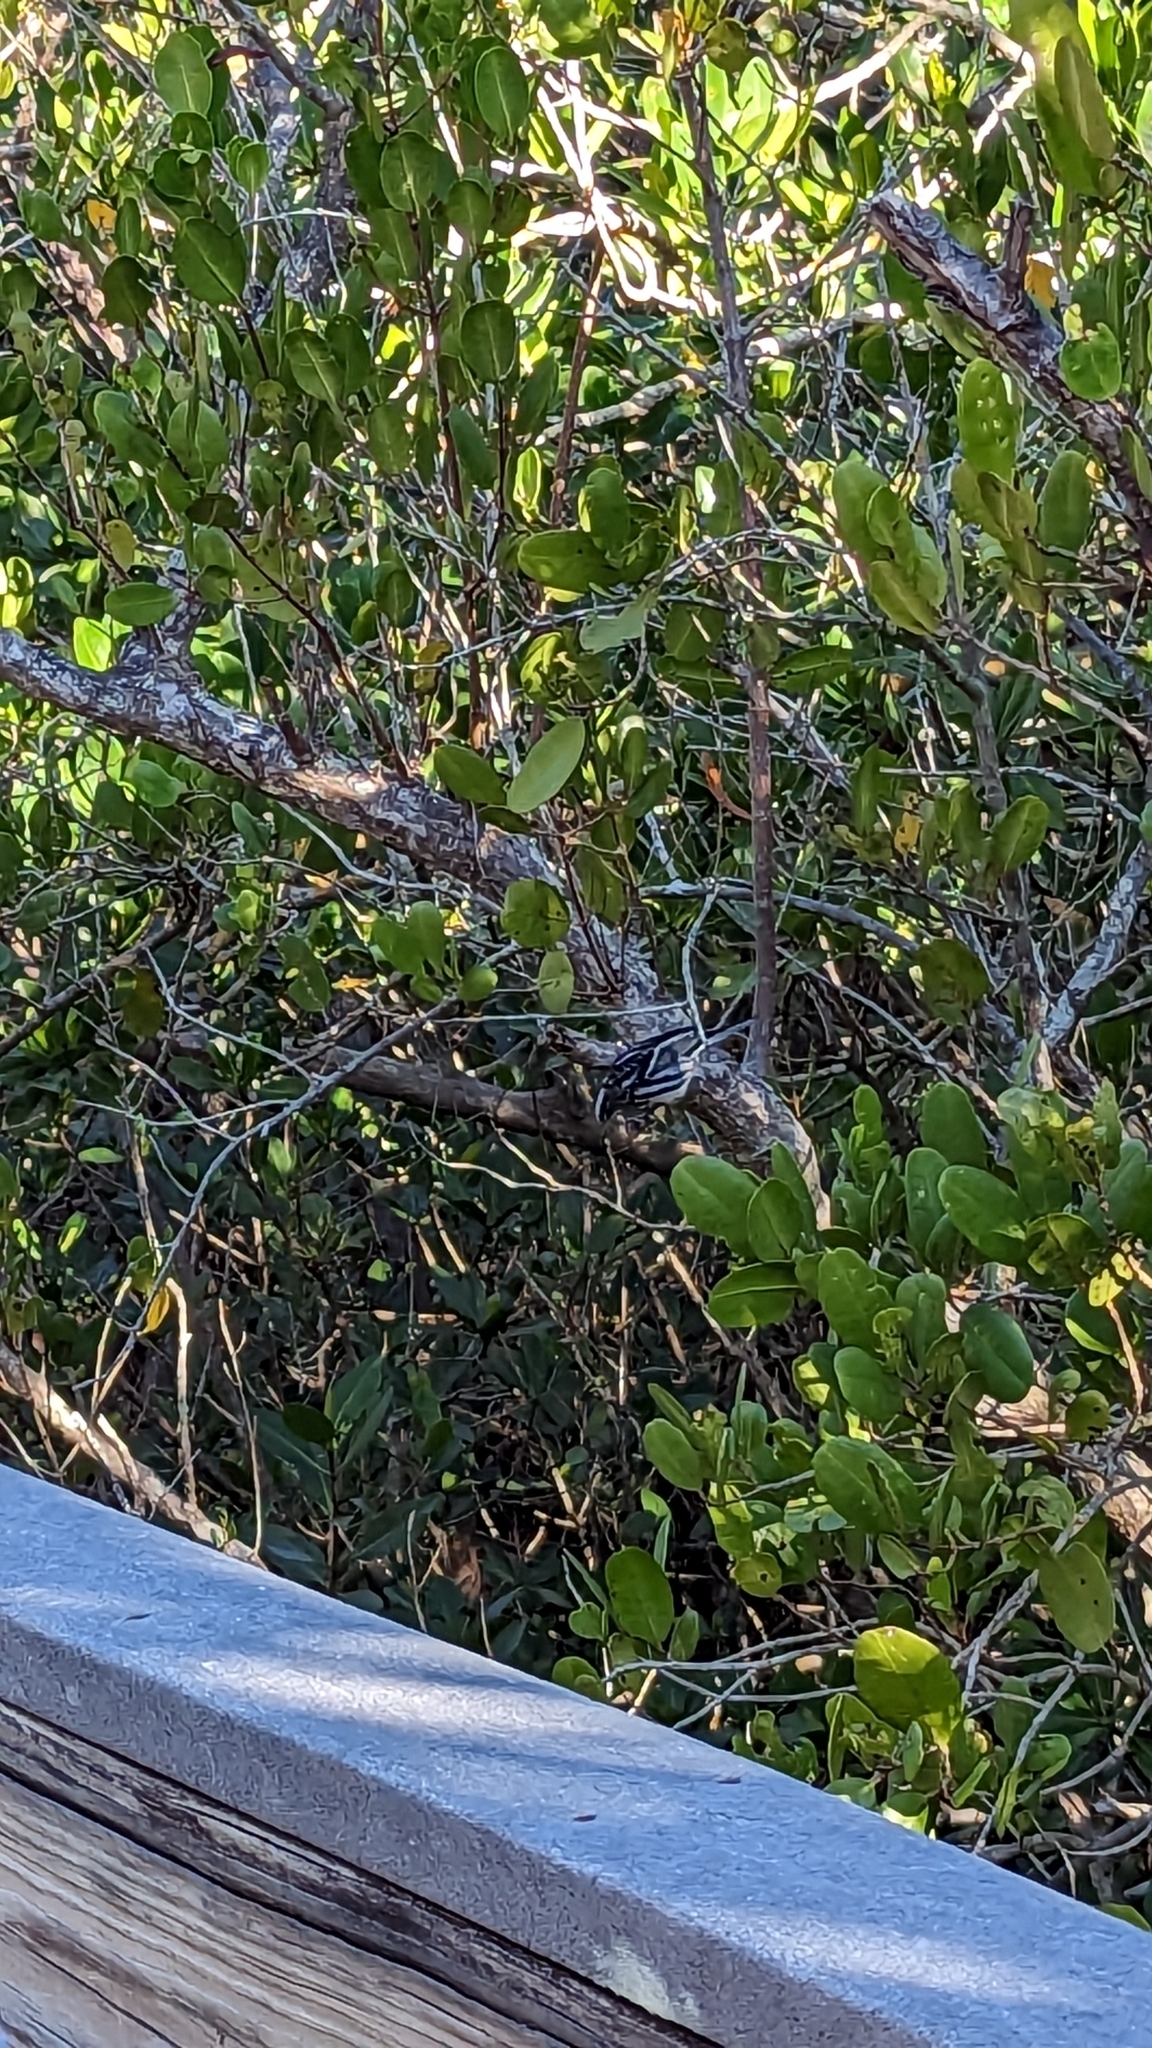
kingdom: Animalia
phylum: Chordata
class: Aves
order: Passeriformes
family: Parulidae
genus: Mniotilta
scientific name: Mniotilta varia
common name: Black-and-white warbler
